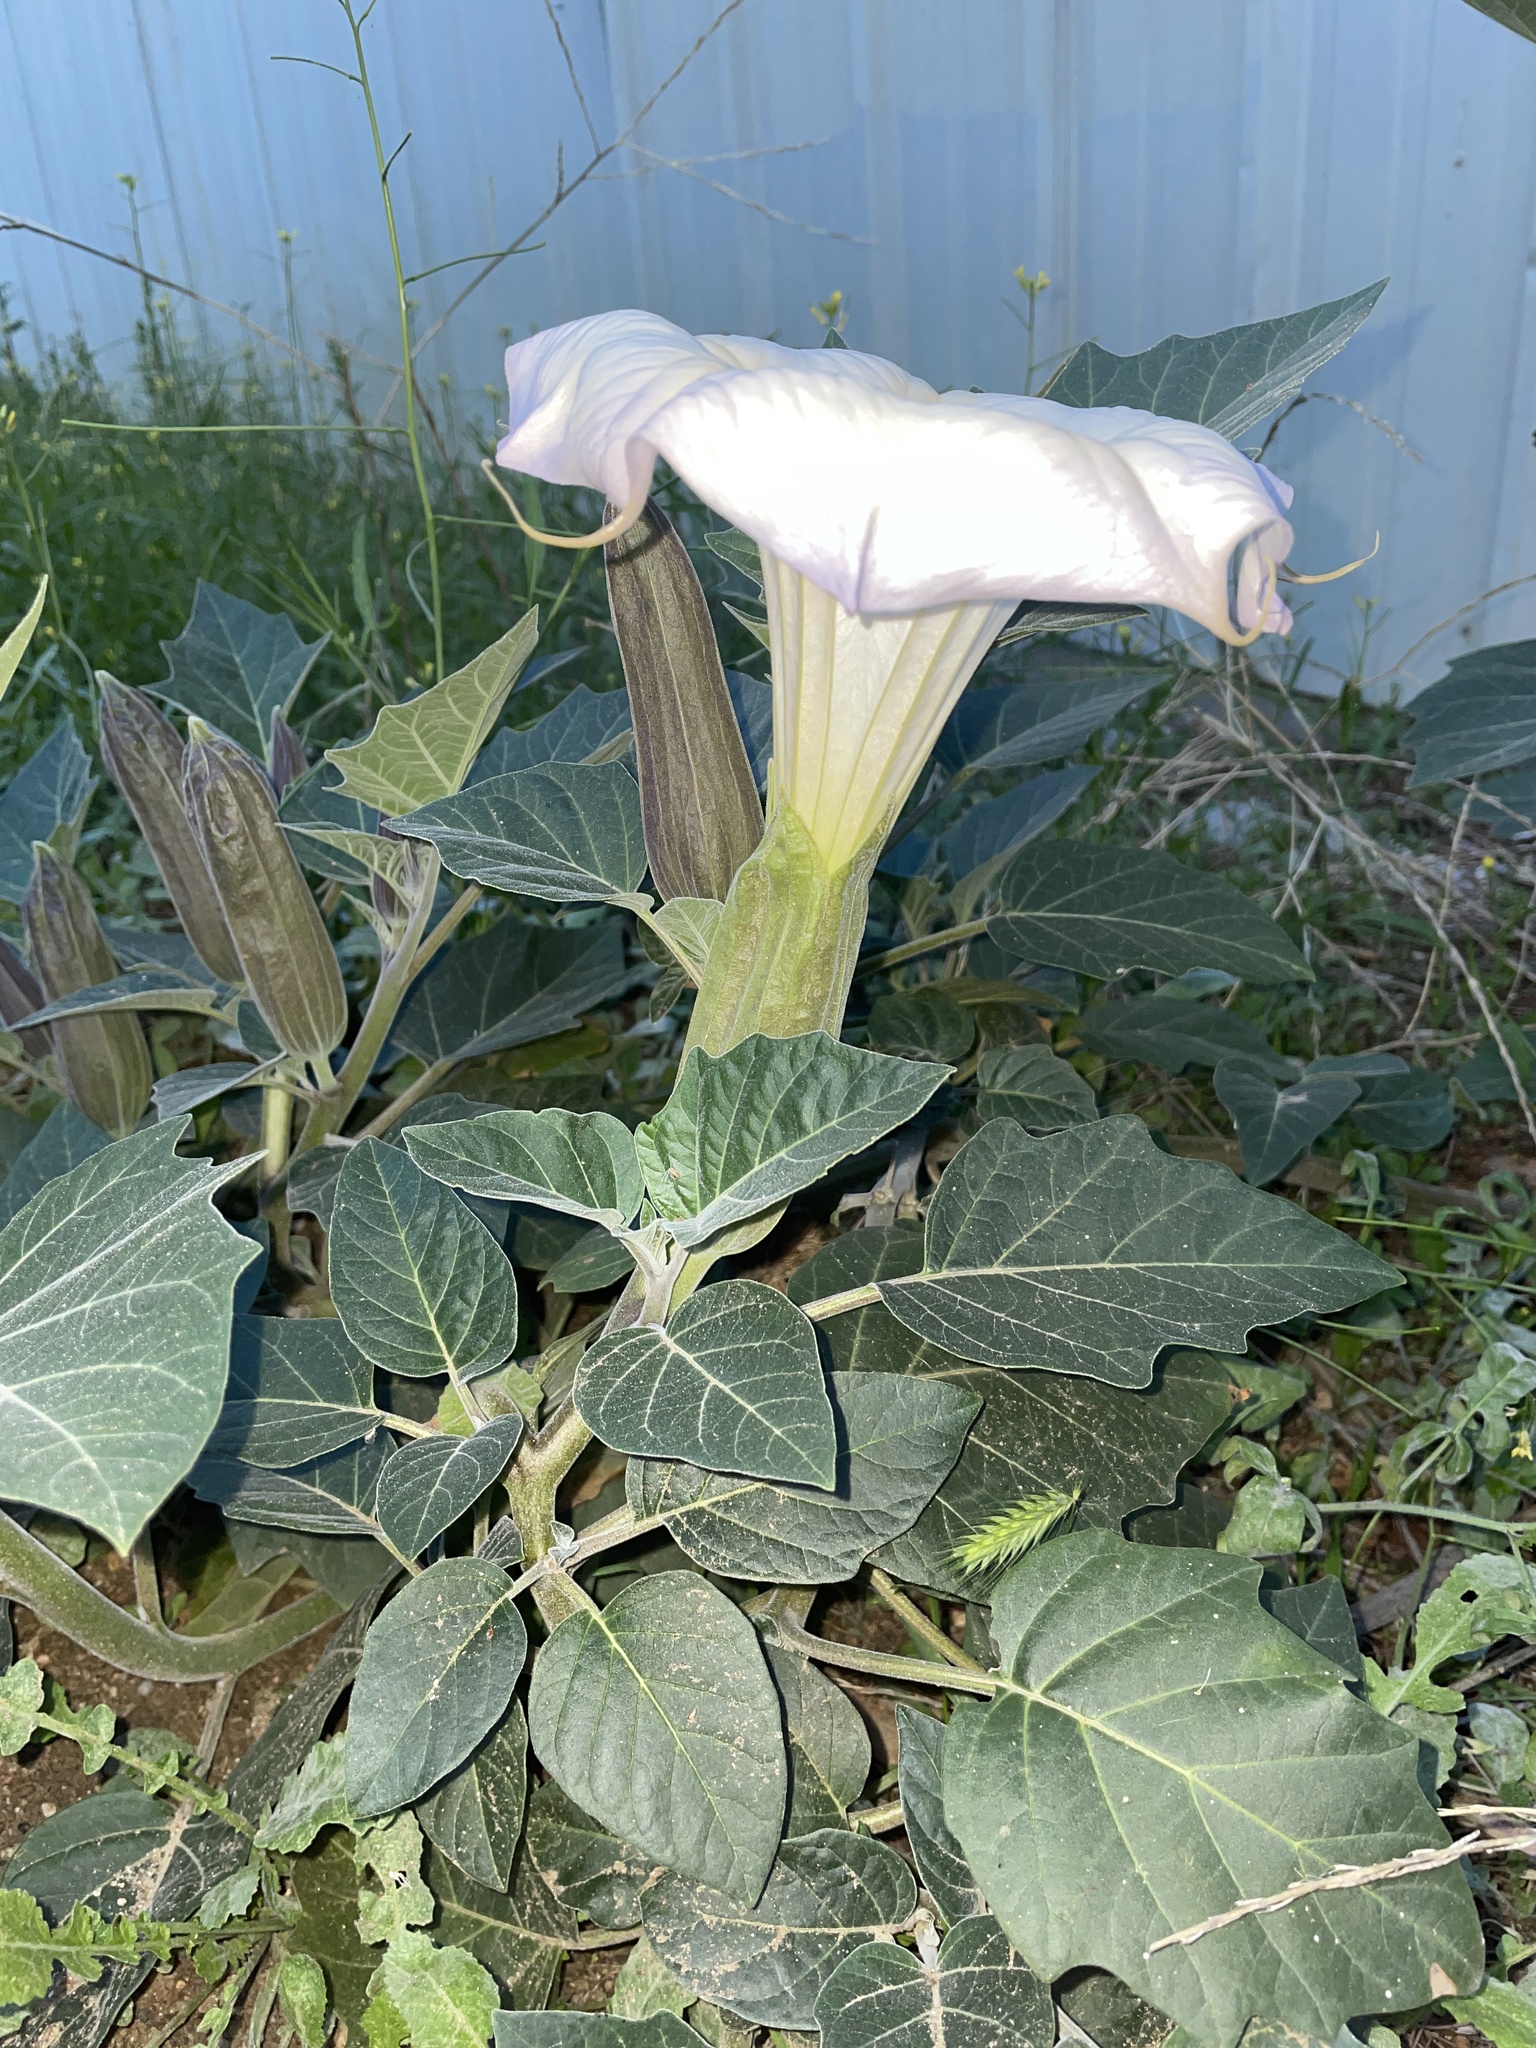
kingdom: Plantae
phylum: Tracheophyta
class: Magnoliopsida
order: Solanales
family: Solanaceae
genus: Datura
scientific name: Datura wrightii
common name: Sacred thorn-apple
